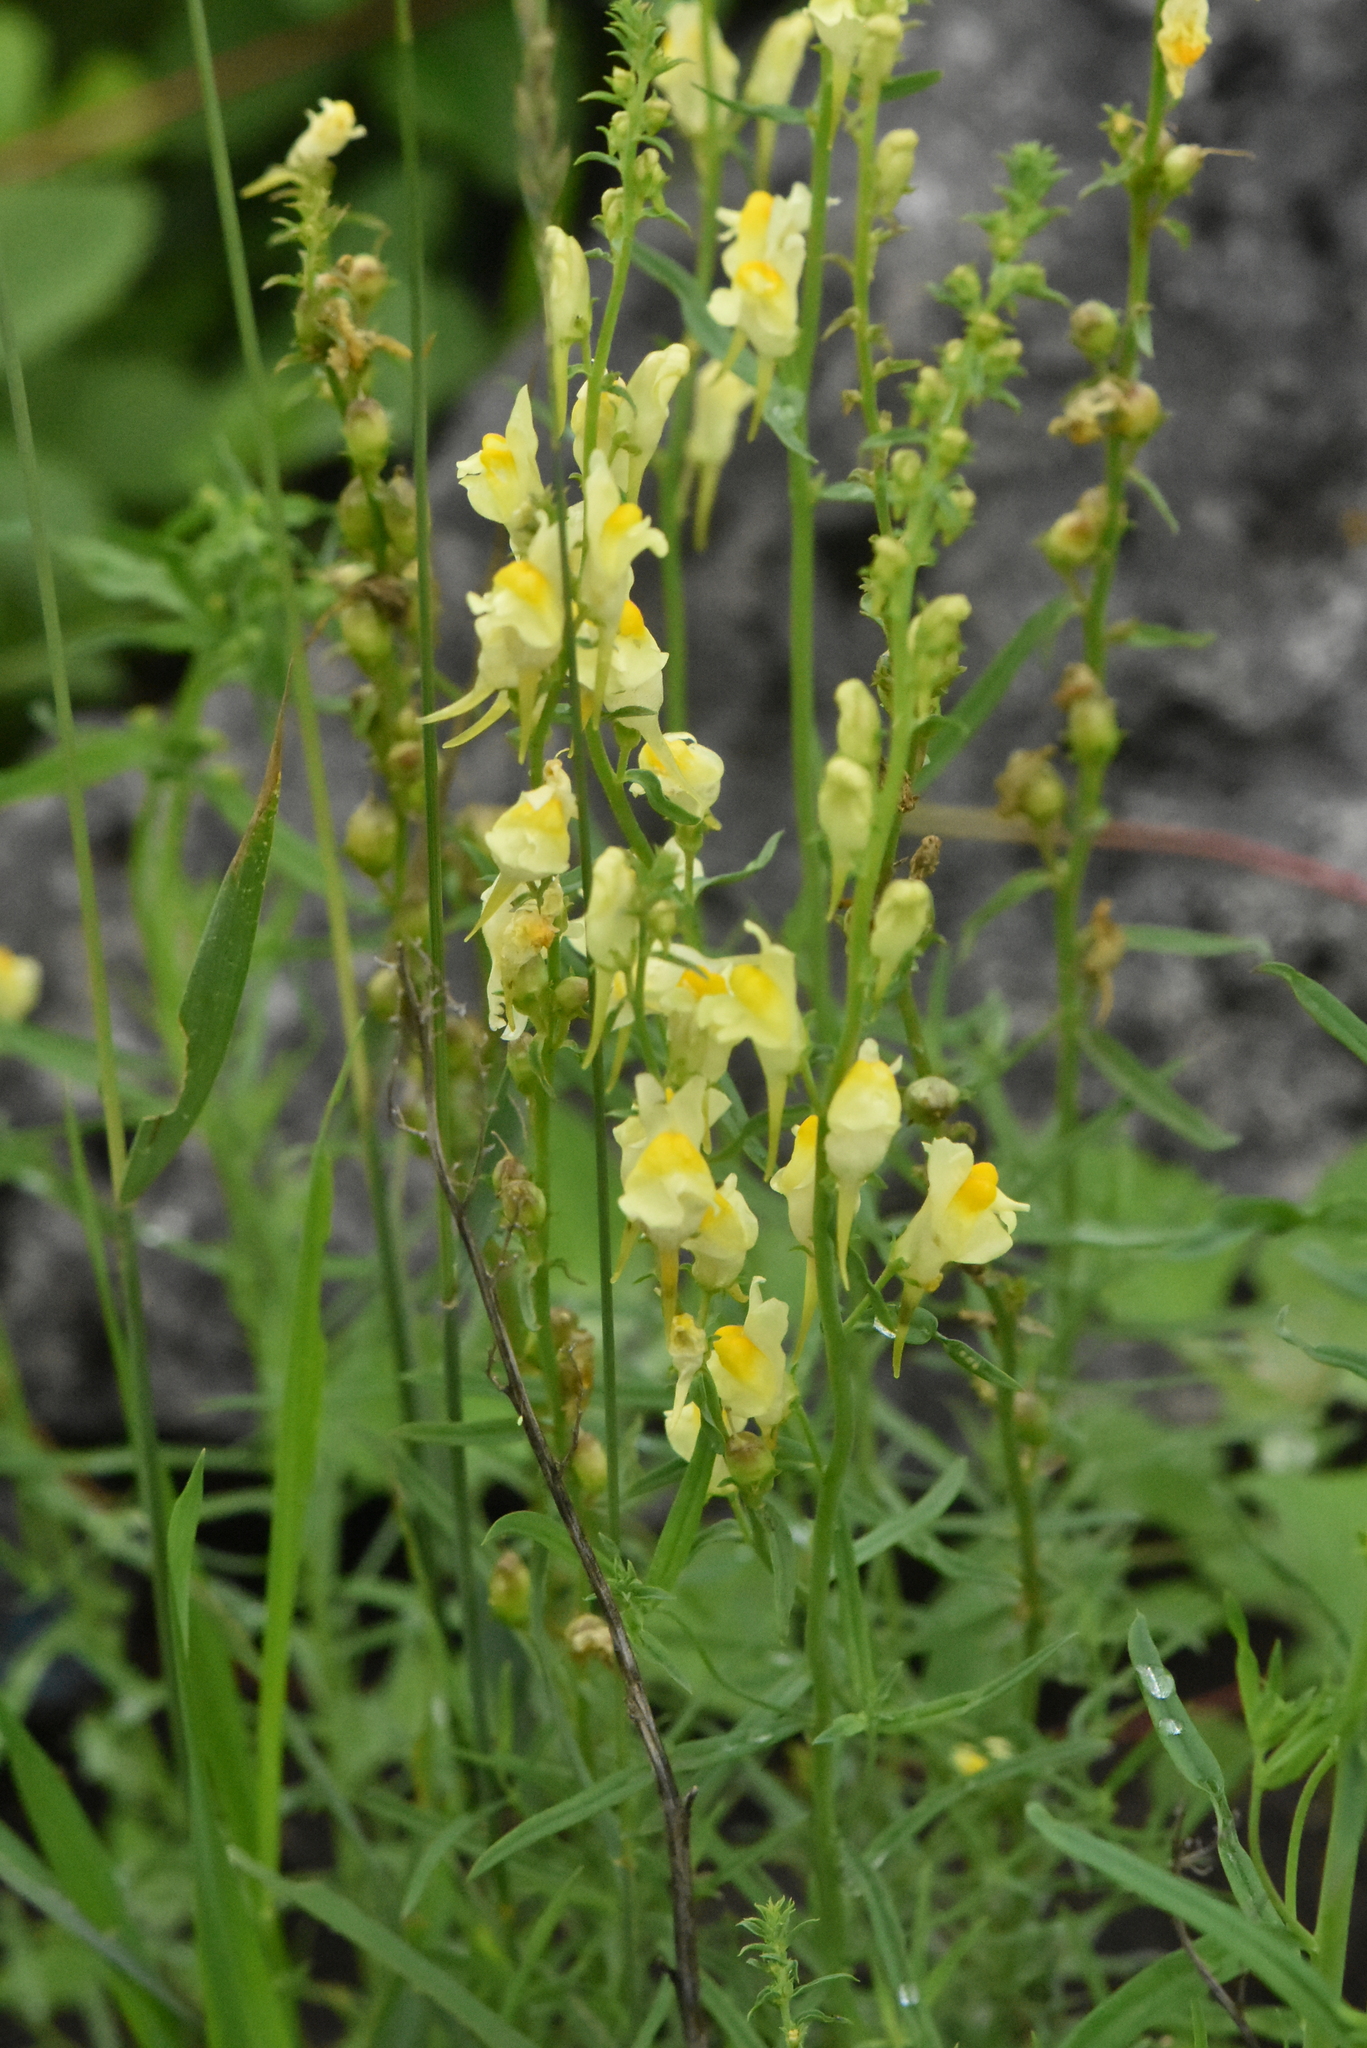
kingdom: Plantae
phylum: Tracheophyta
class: Magnoliopsida
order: Lamiales
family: Plantaginaceae
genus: Linaria
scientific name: Linaria vulgaris
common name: Butter and eggs
